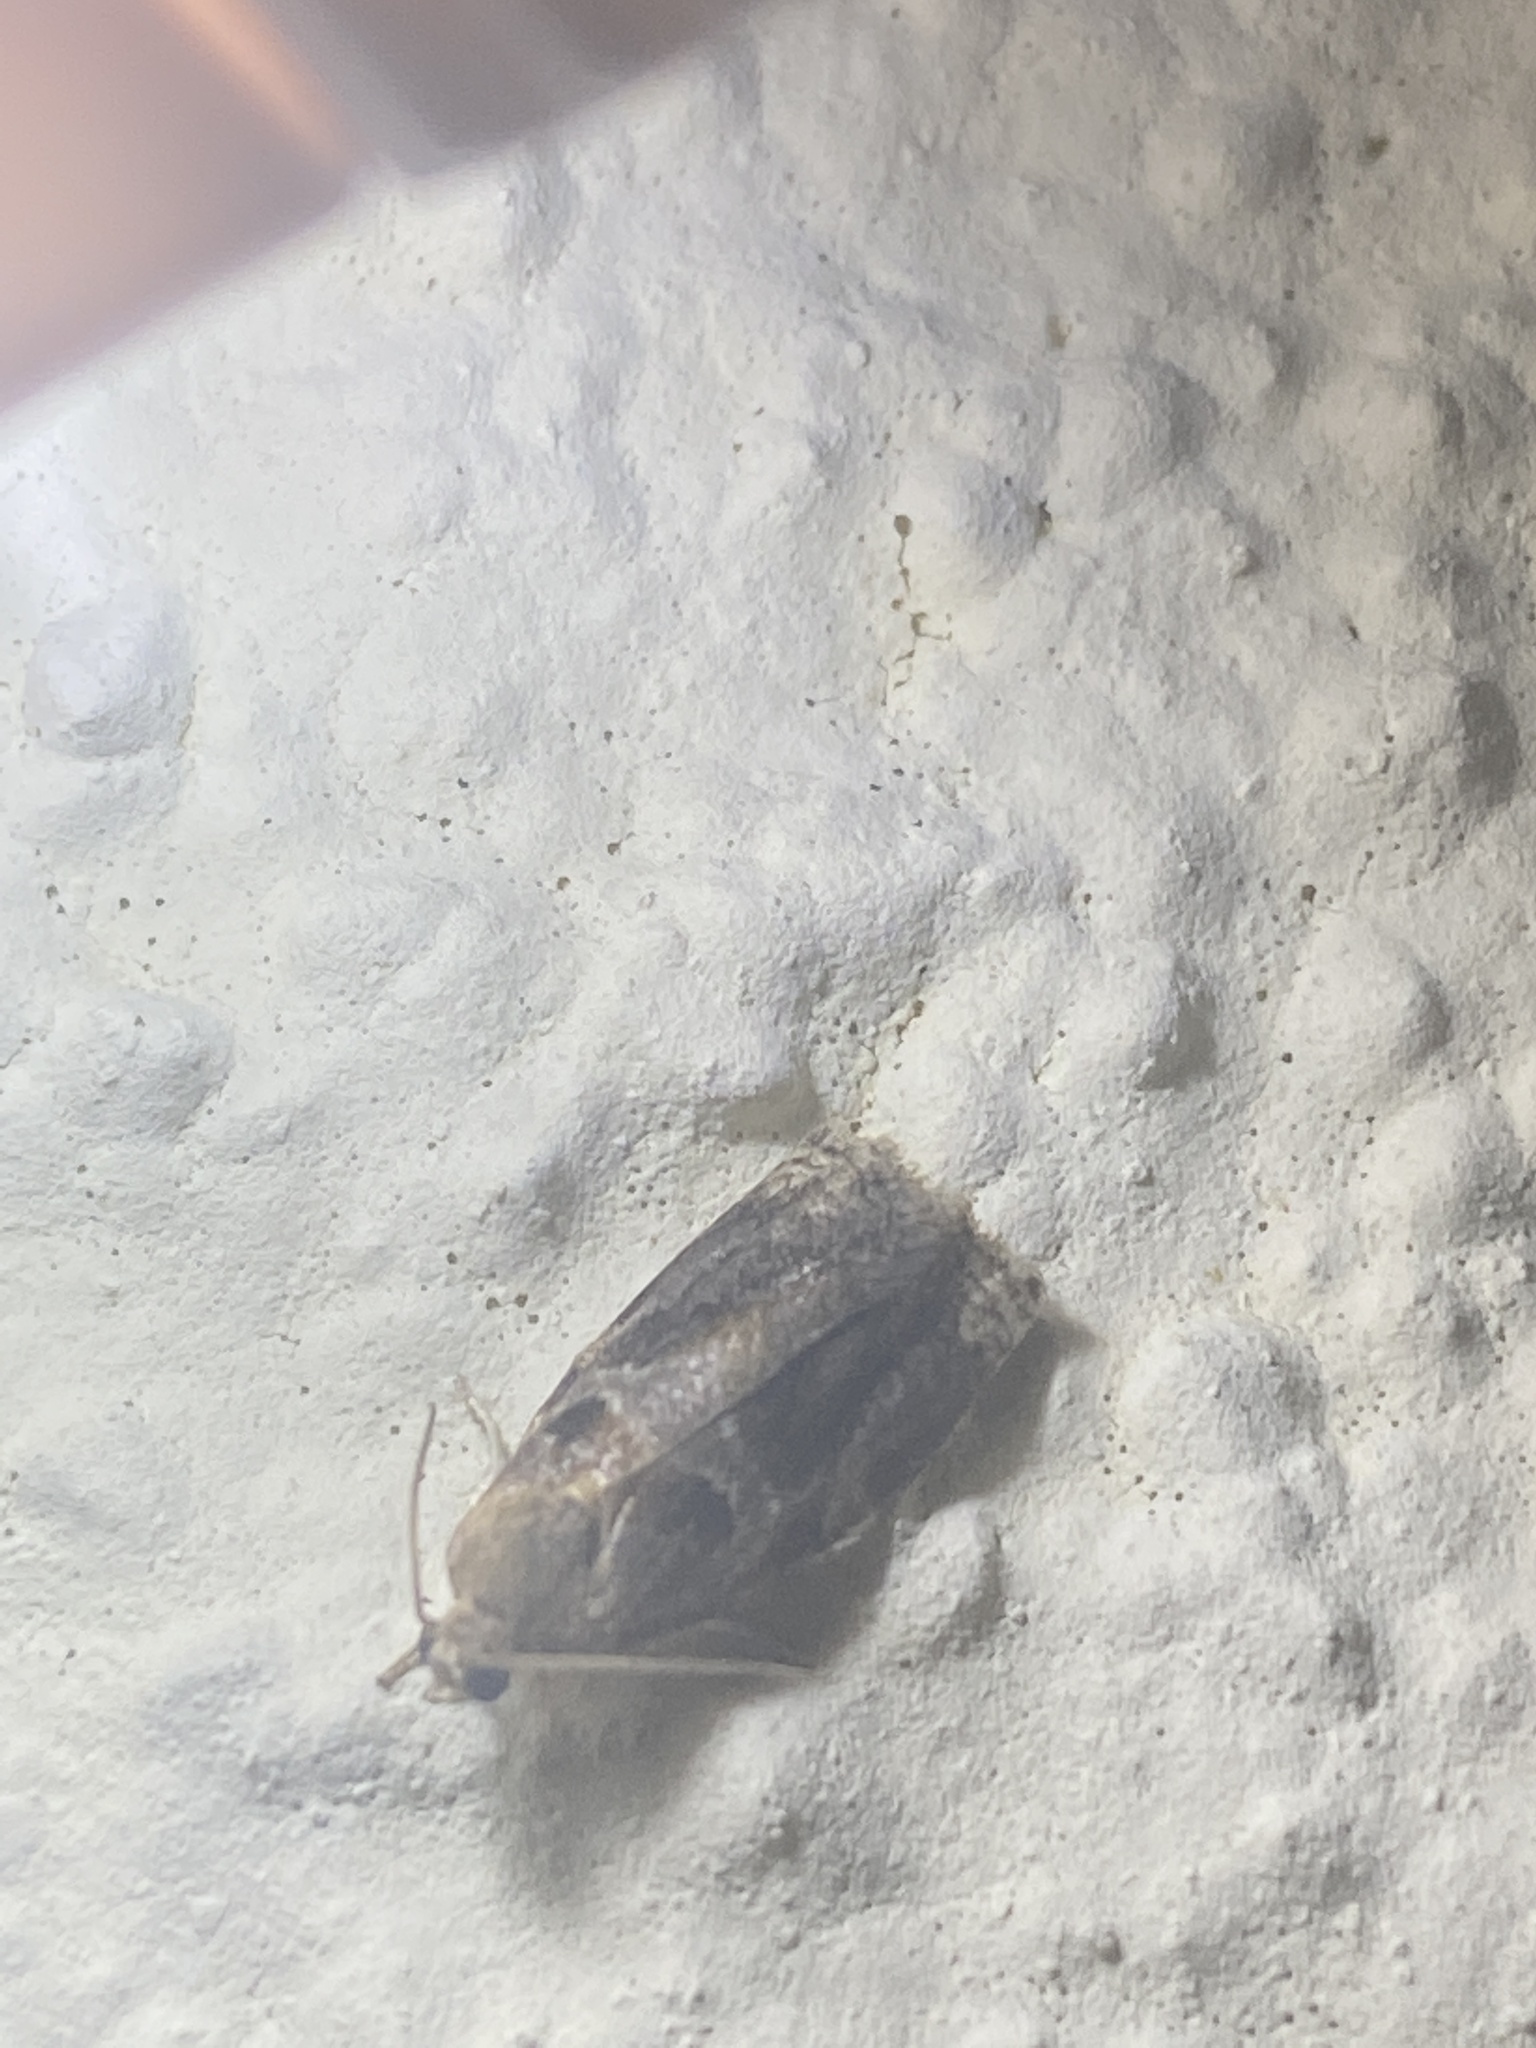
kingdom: Animalia
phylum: Arthropoda
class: Insecta
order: Lepidoptera
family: Tortricidae
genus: Archips
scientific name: Archips xylosteana
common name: Variegated golden tortrix
